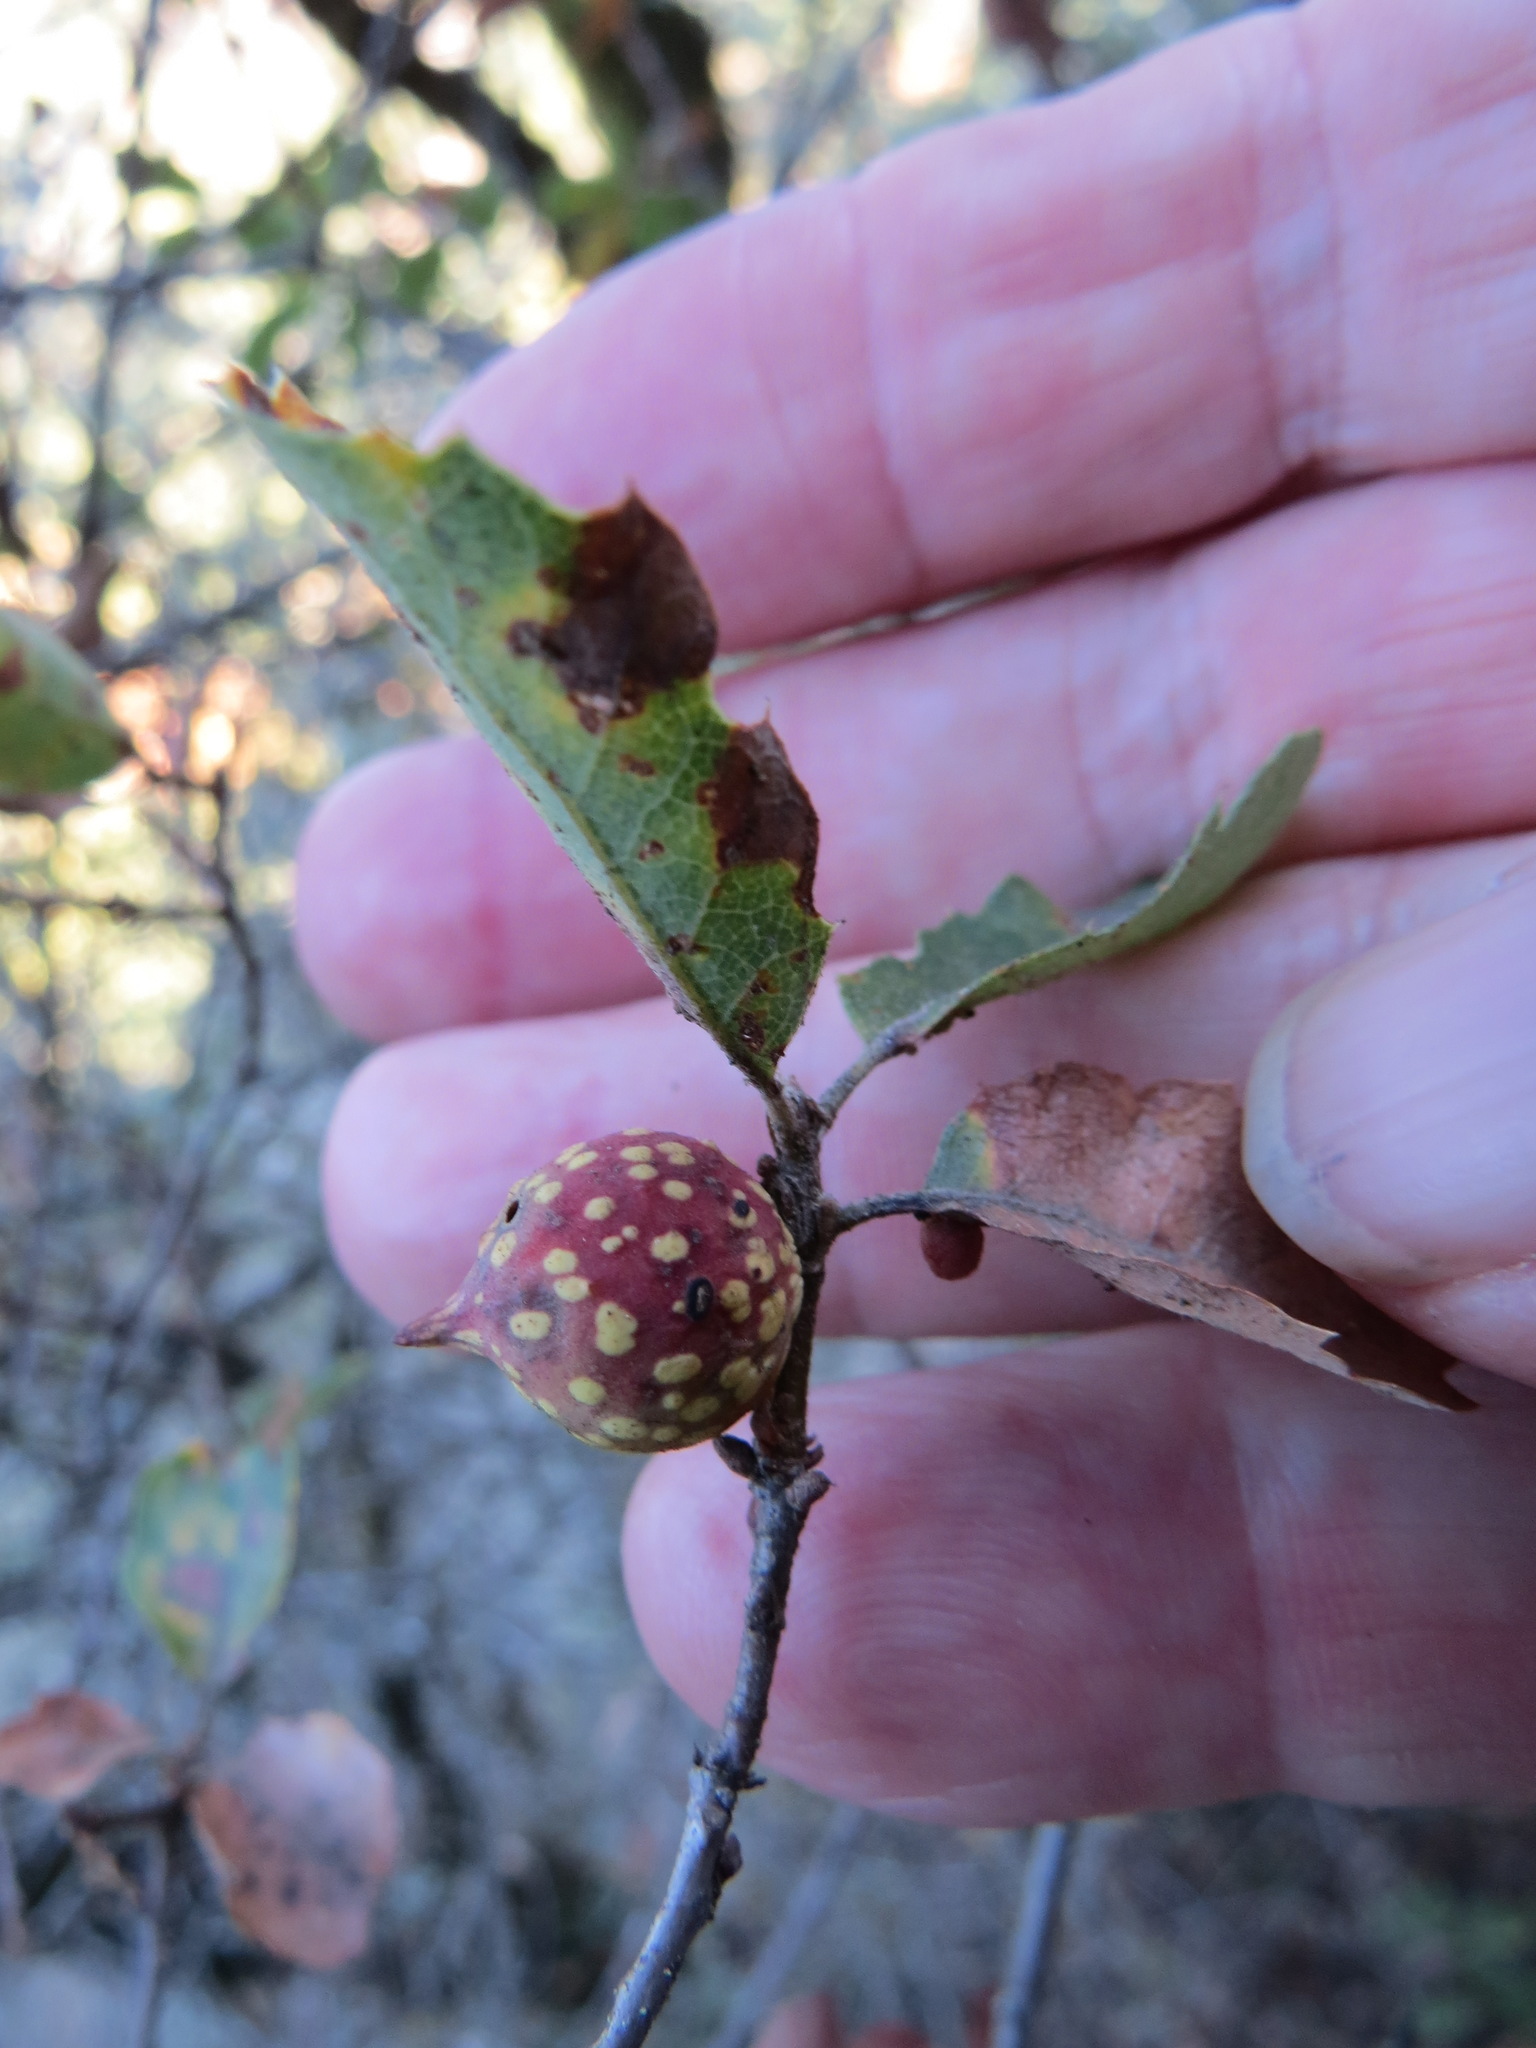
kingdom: Animalia
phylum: Arthropoda
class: Insecta
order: Hymenoptera
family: Cynipidae
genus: Burnettweldia
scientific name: Burnettweldia
